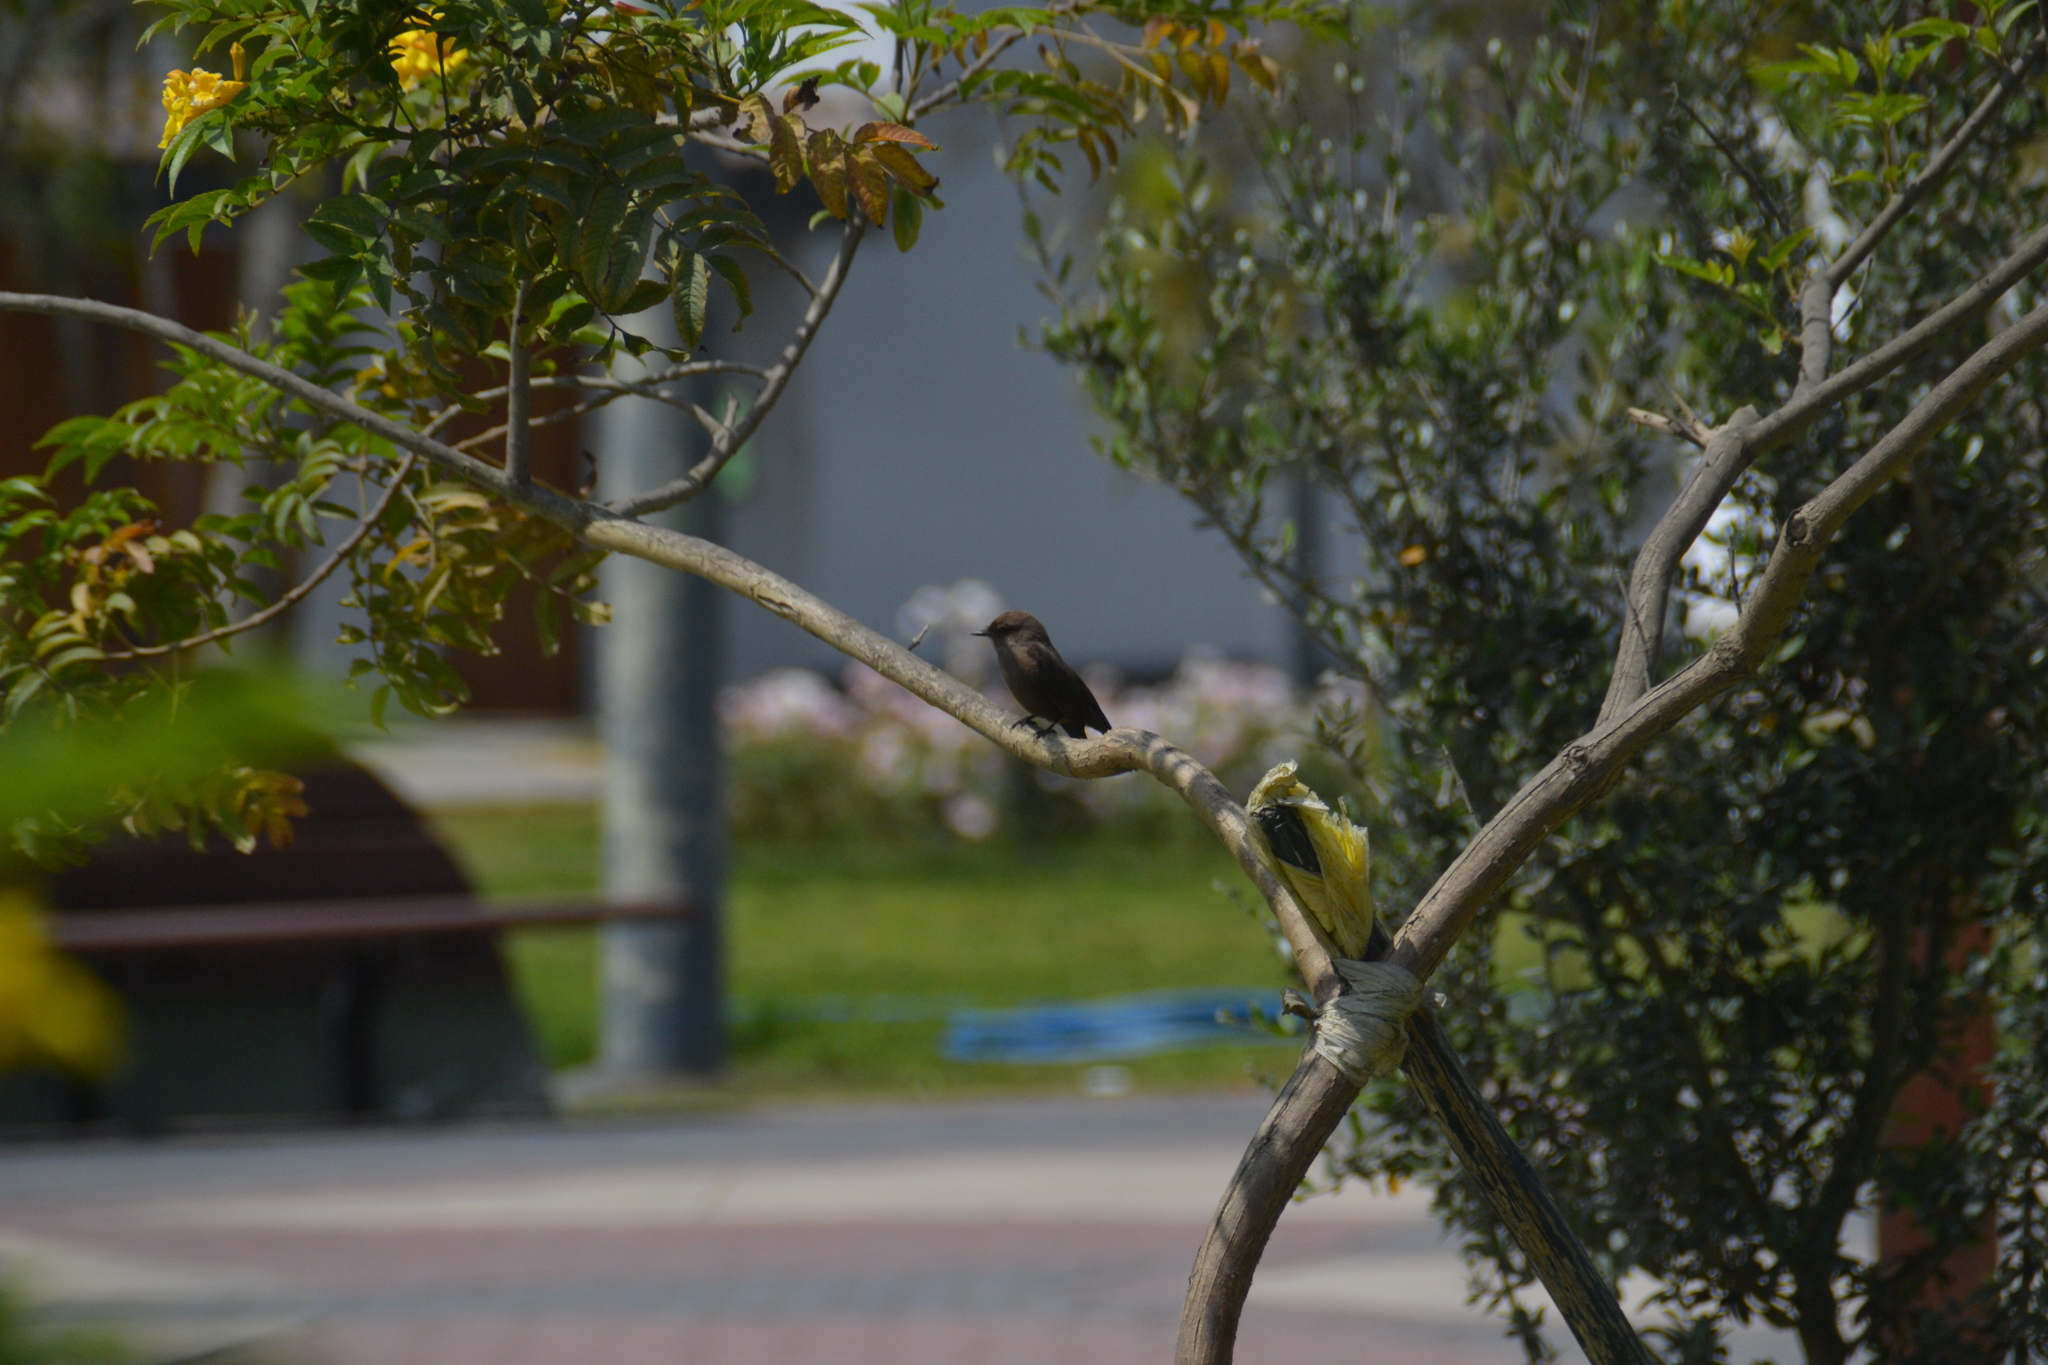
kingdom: Animalia
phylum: Chordata
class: Aves
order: Passeriformes
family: Tyrannidae
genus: Pyrocephalus
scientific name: Pyrocephalus rubinus
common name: Vermilion flycatcher
